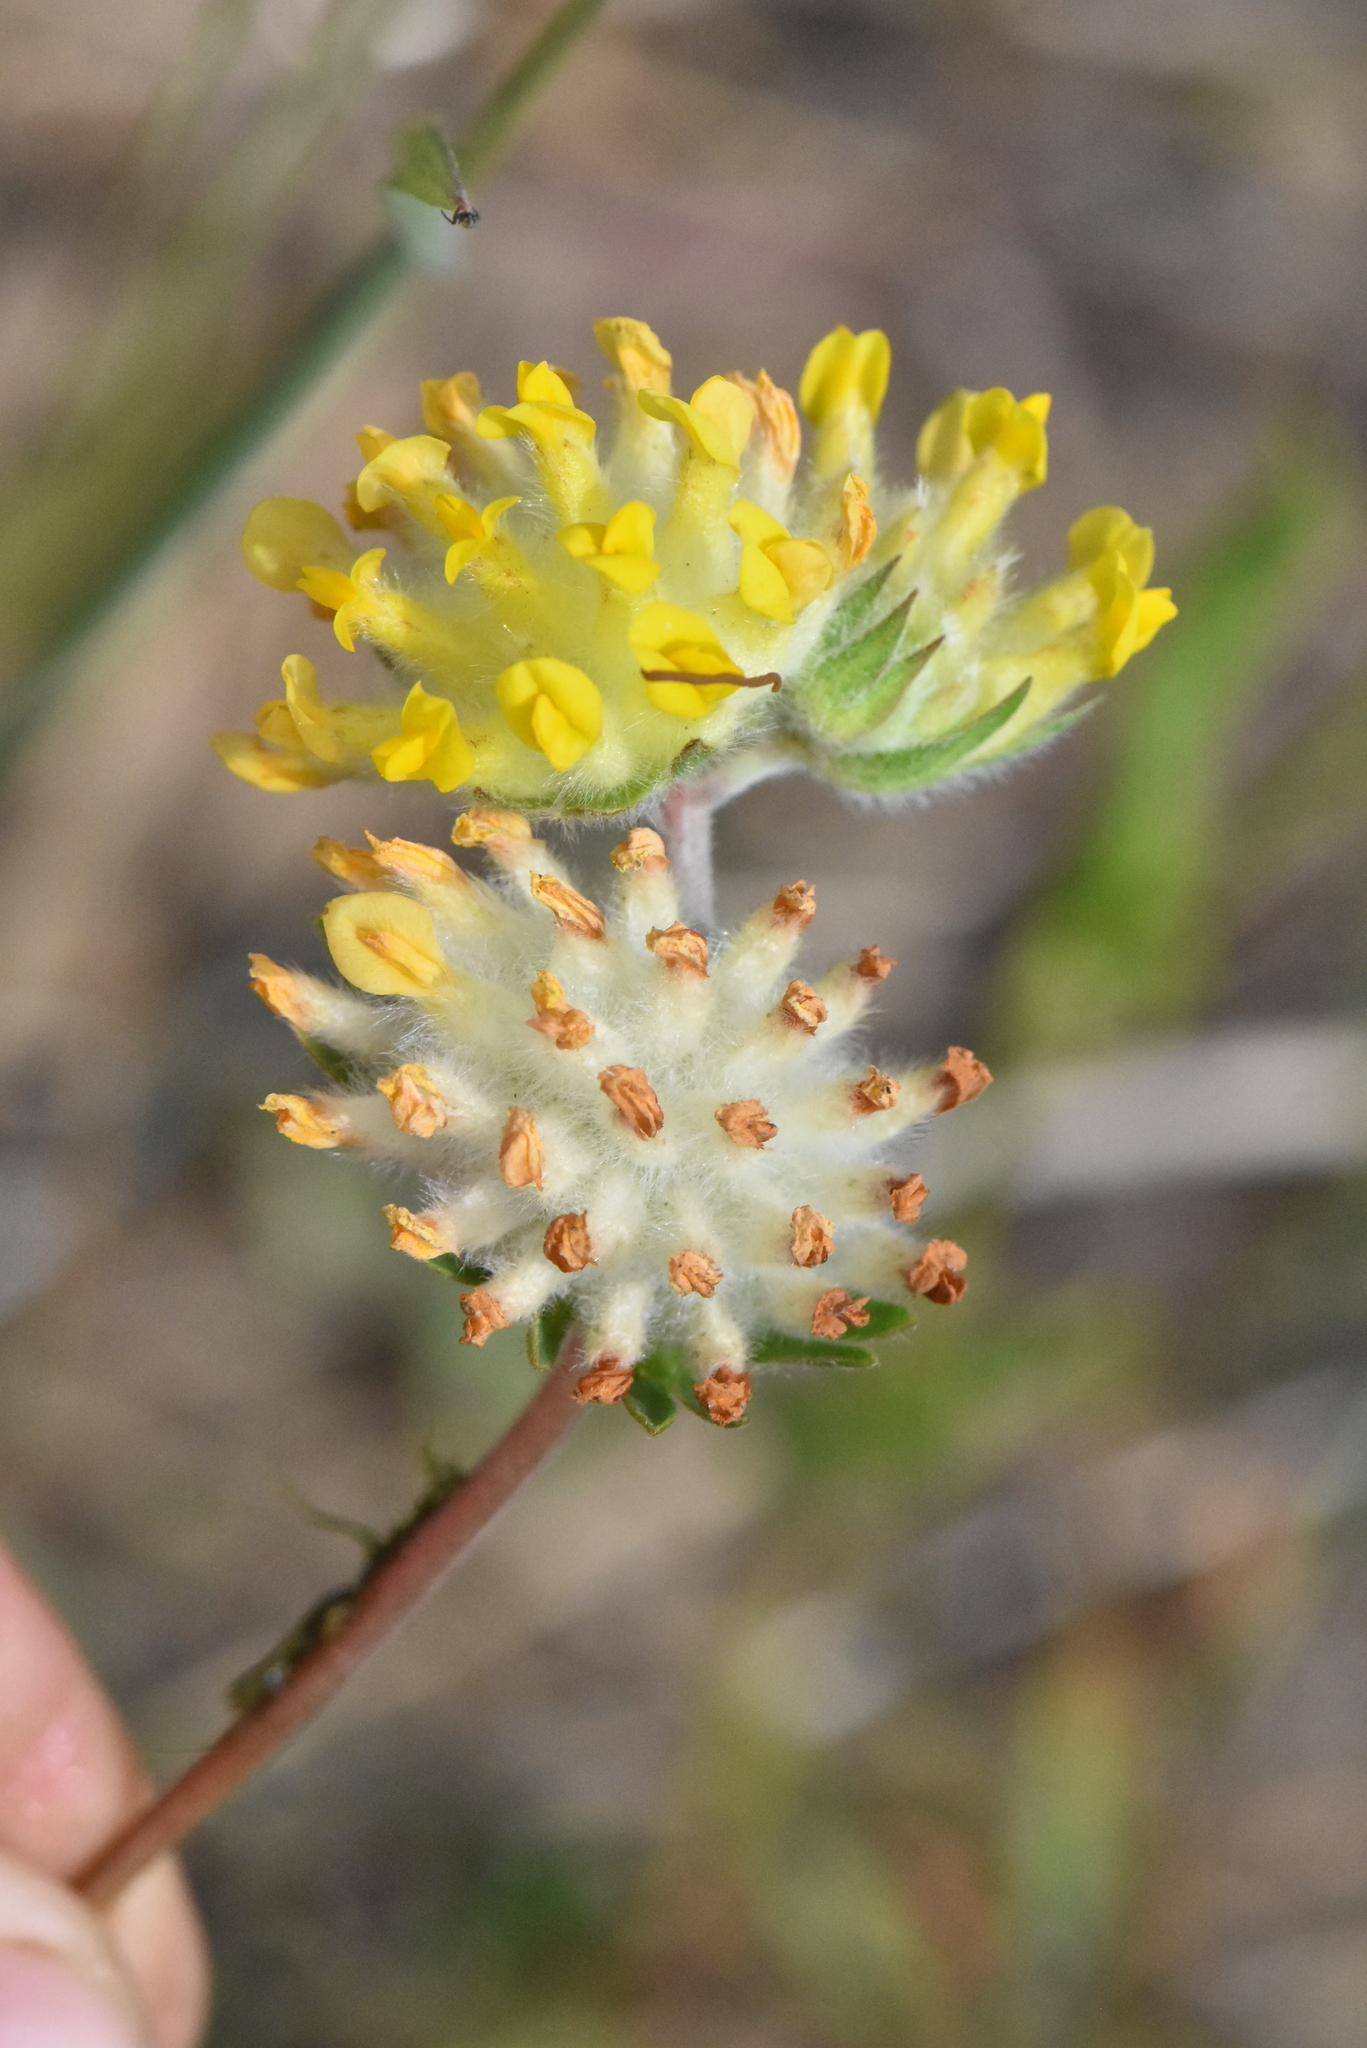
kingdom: Plantae
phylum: Tracheophyta
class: Magnoliopsida
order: Fabales
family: Fabaceae
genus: Anthyllis
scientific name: Anthyllis vulneraria
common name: Kidney vetch
